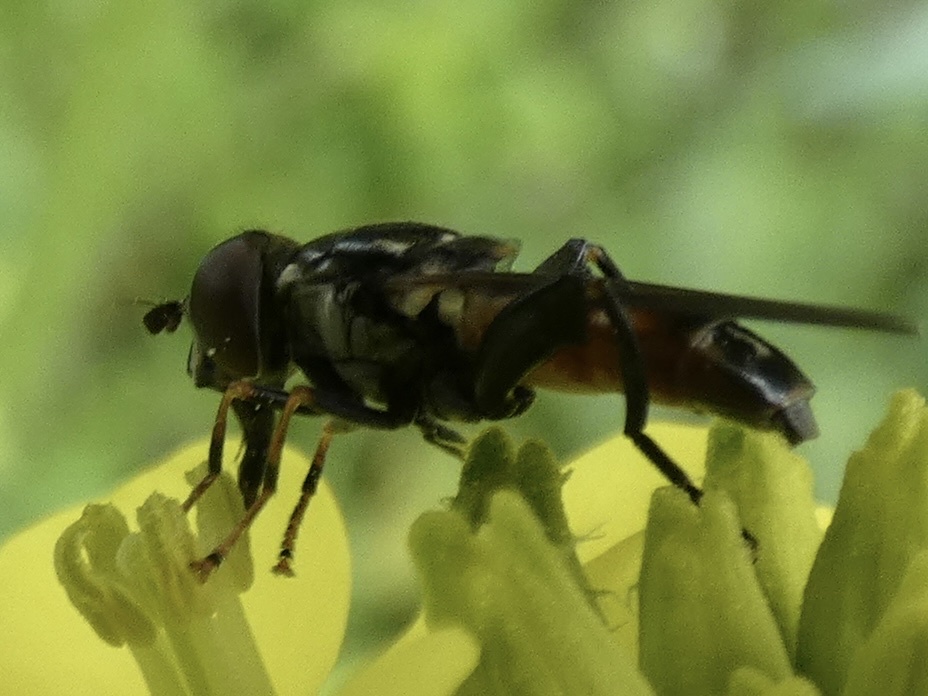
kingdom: Animalia
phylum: Arthropoda
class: Insecta
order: Diptera
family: Syrphidae
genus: Tropidia
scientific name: Tropidia scita
